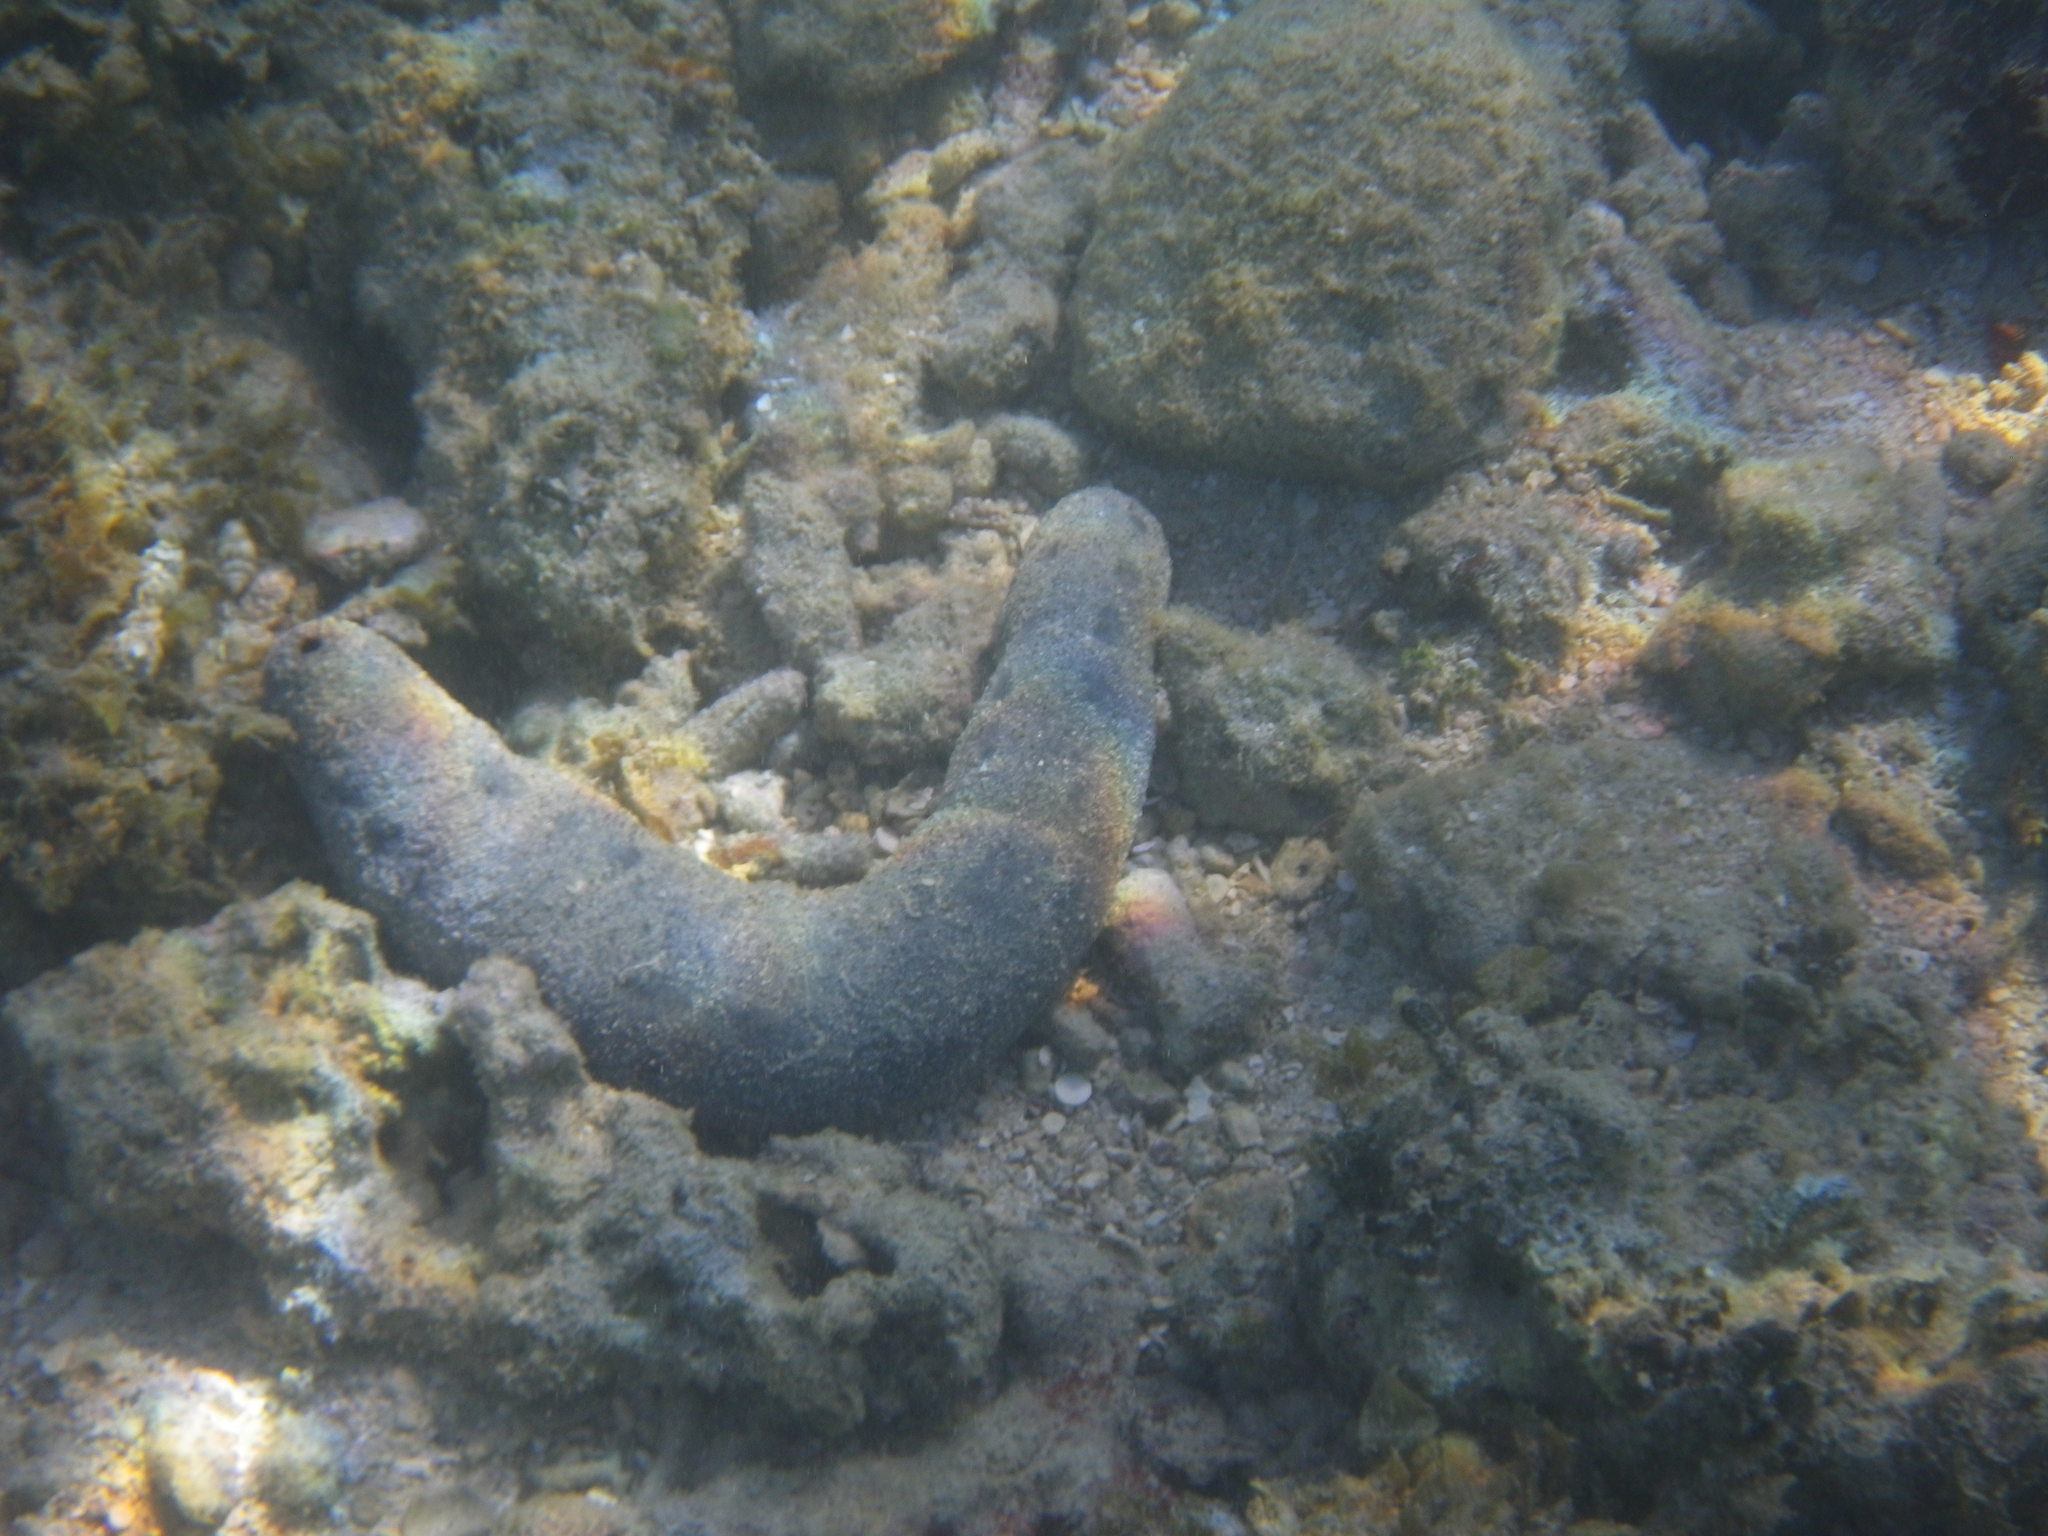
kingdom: Animalia
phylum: Echinodermata
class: Holothuroidea
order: Holothuriida
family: Holothuriidae
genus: Holothuria
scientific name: Holothuria atra
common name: Lollyfish
